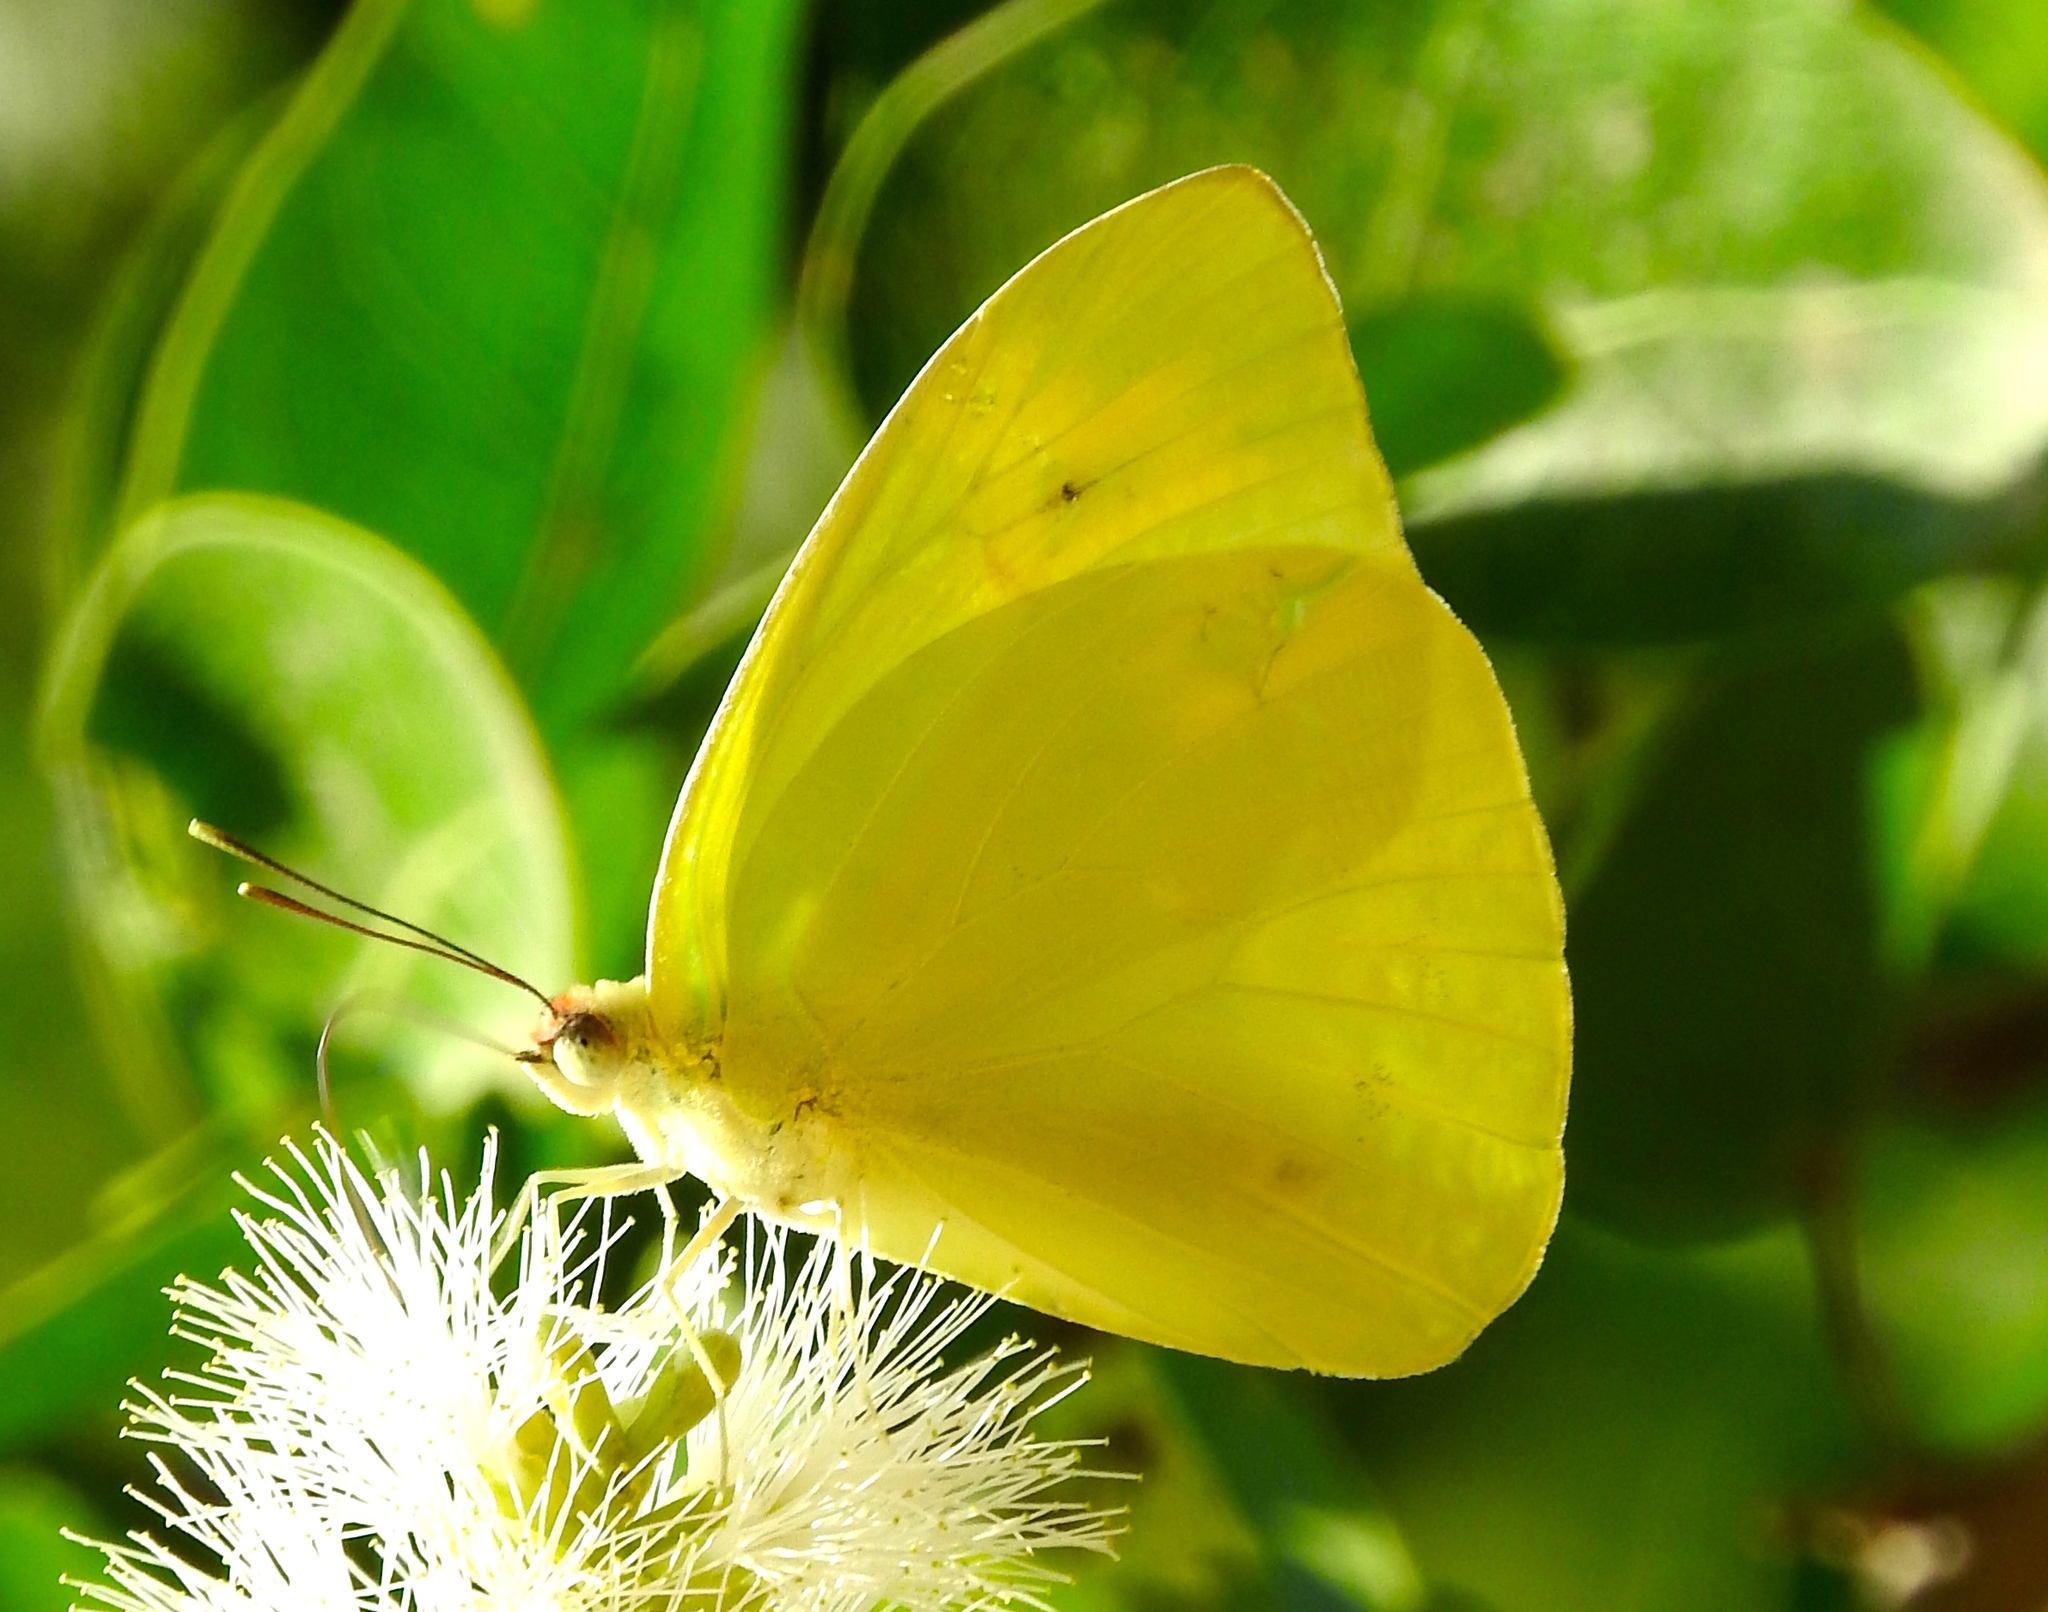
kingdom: Animalia
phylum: Arthropoda
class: Insecta
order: Lepidoptera
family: Pieridae
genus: Phoebis
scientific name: Phoebis agarithe
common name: Large orange sulphur
